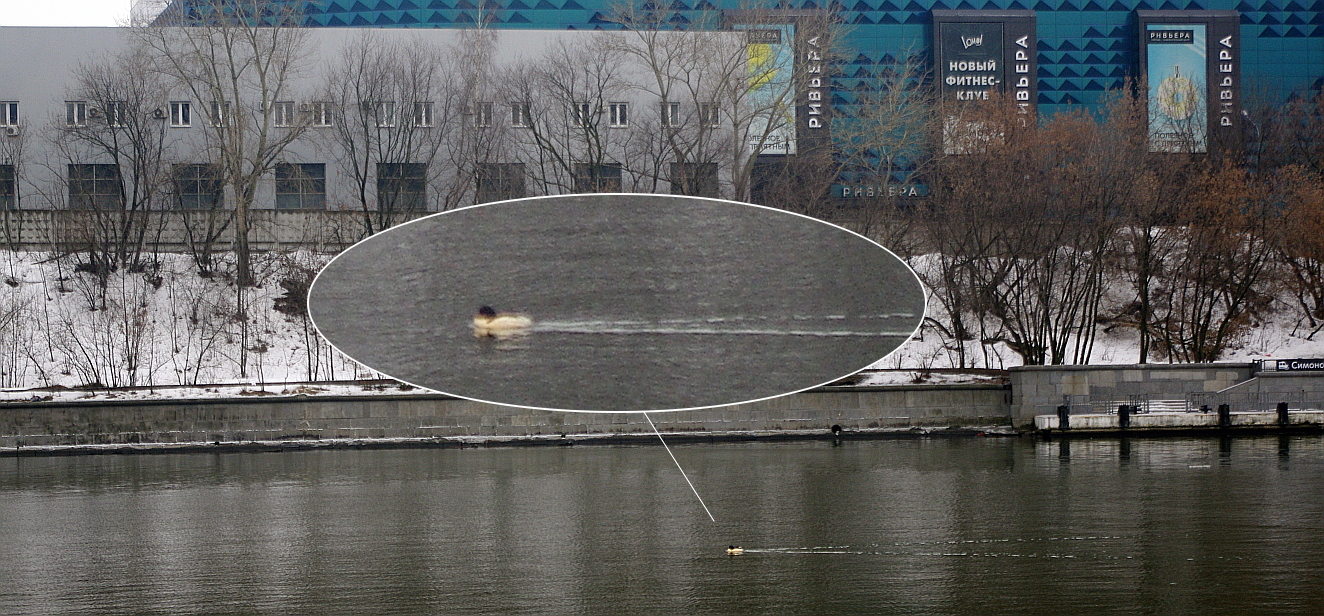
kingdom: Animalia
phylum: Chordata
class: Aves
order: Anseriformes
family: Anatidae
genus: Mergus
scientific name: Mergus merganser
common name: Common merganser
